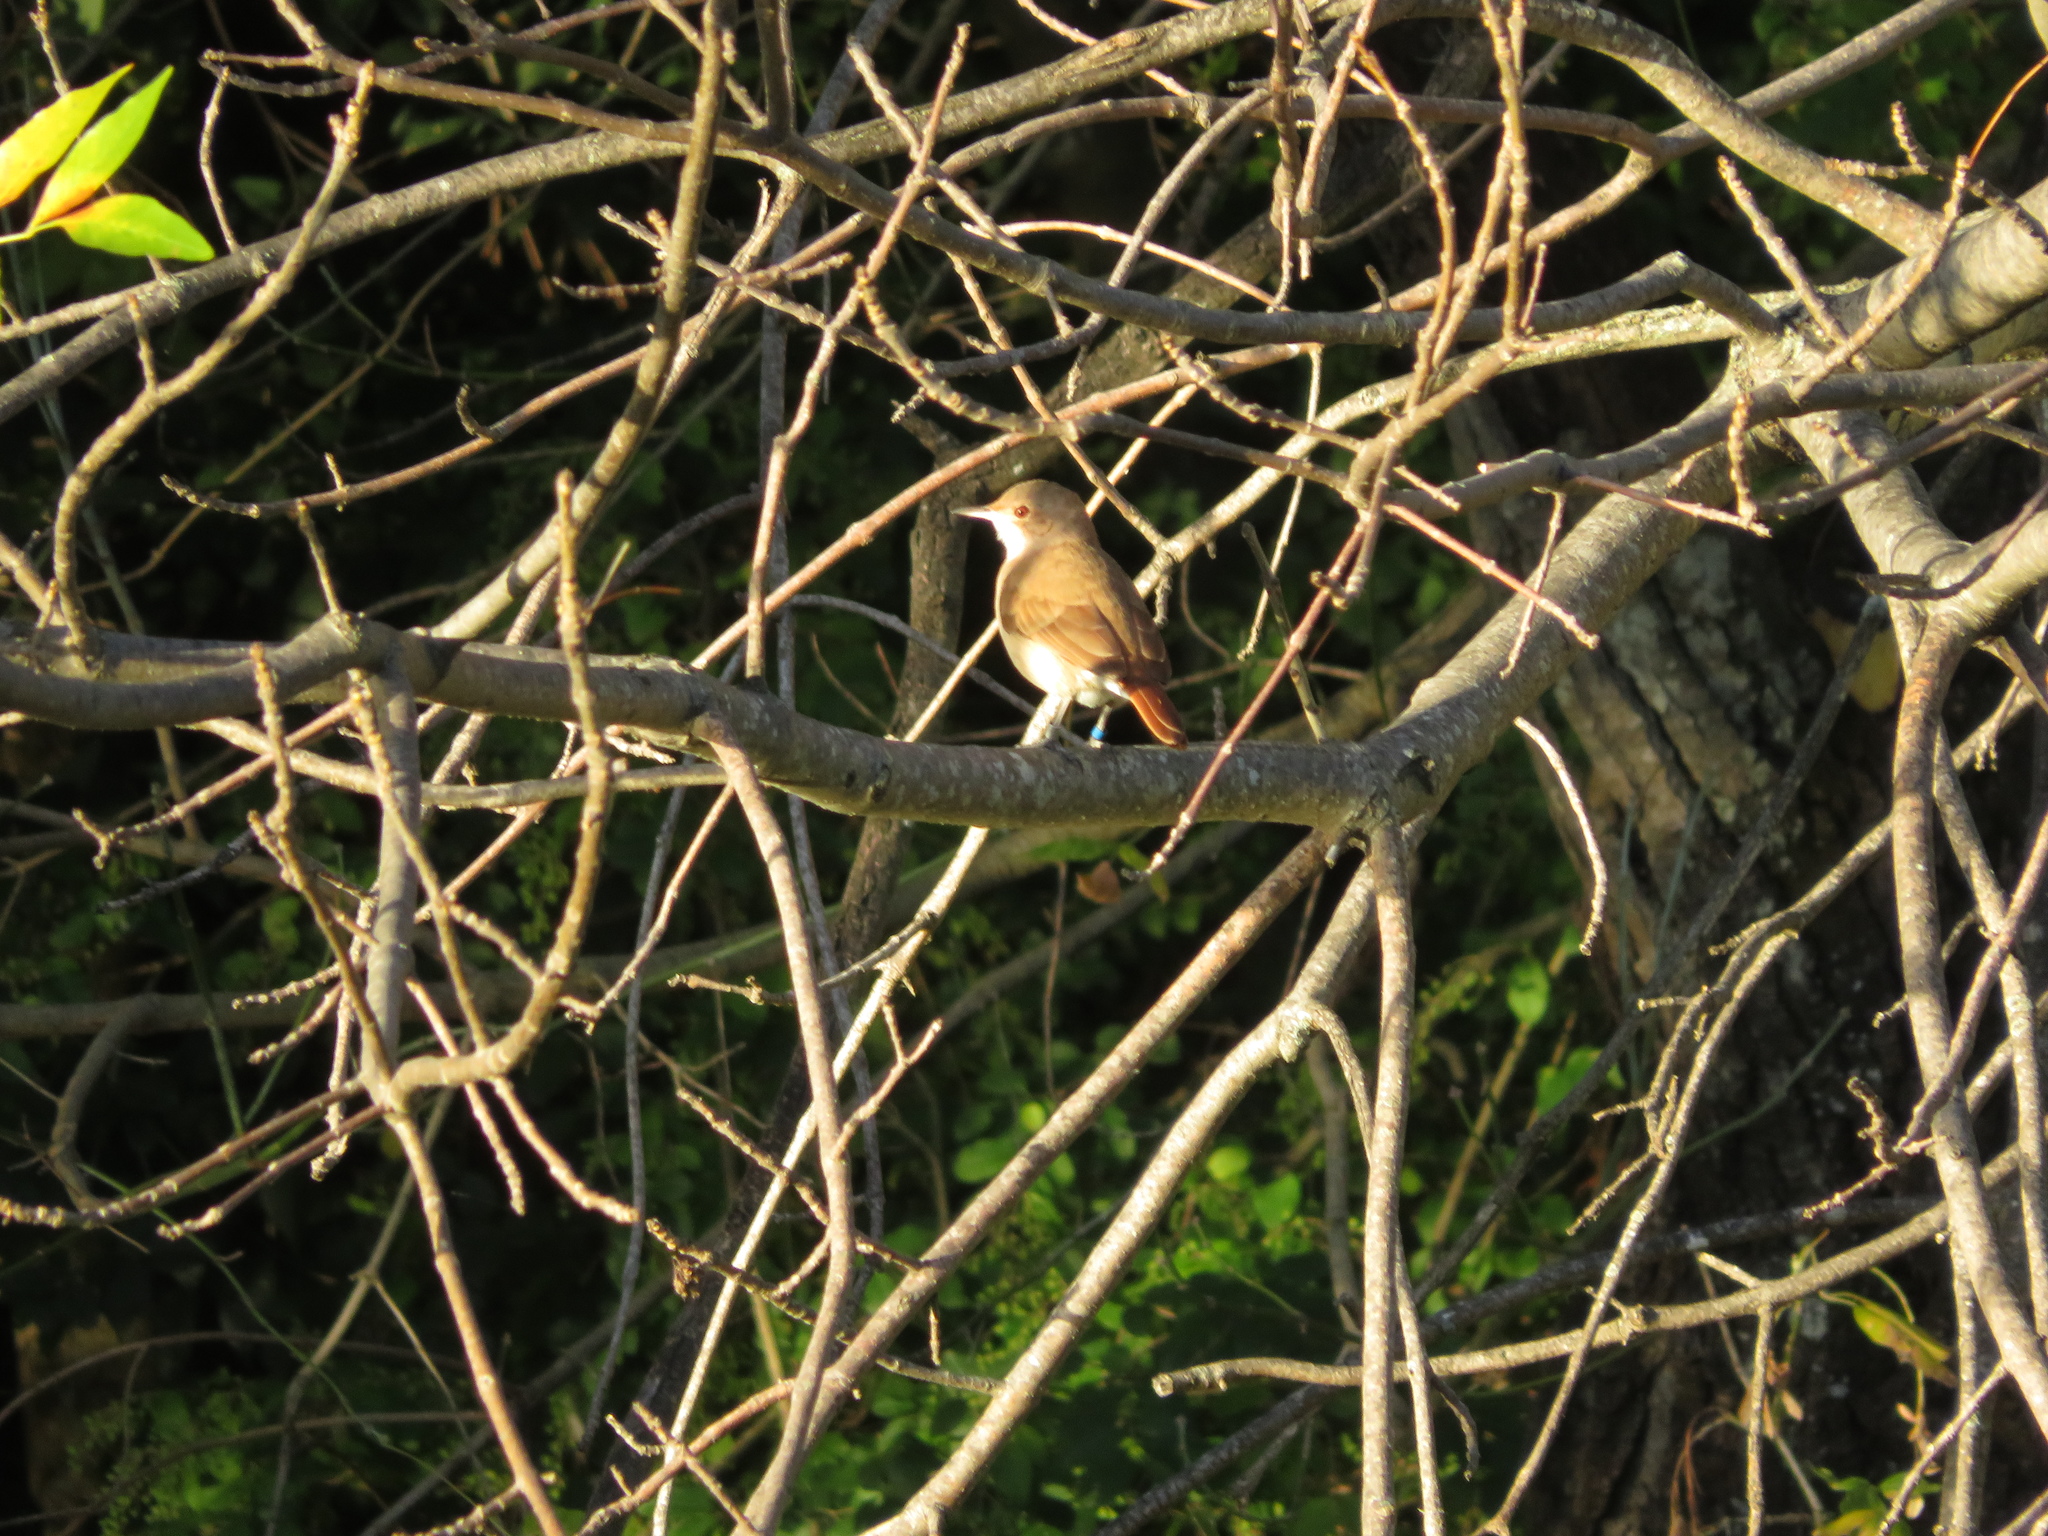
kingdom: Animalia
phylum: Chordata
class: Aves
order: Passeriformes
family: Furnariidae
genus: Furnarius
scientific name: Furnarius rufus
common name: Rufous hornero
